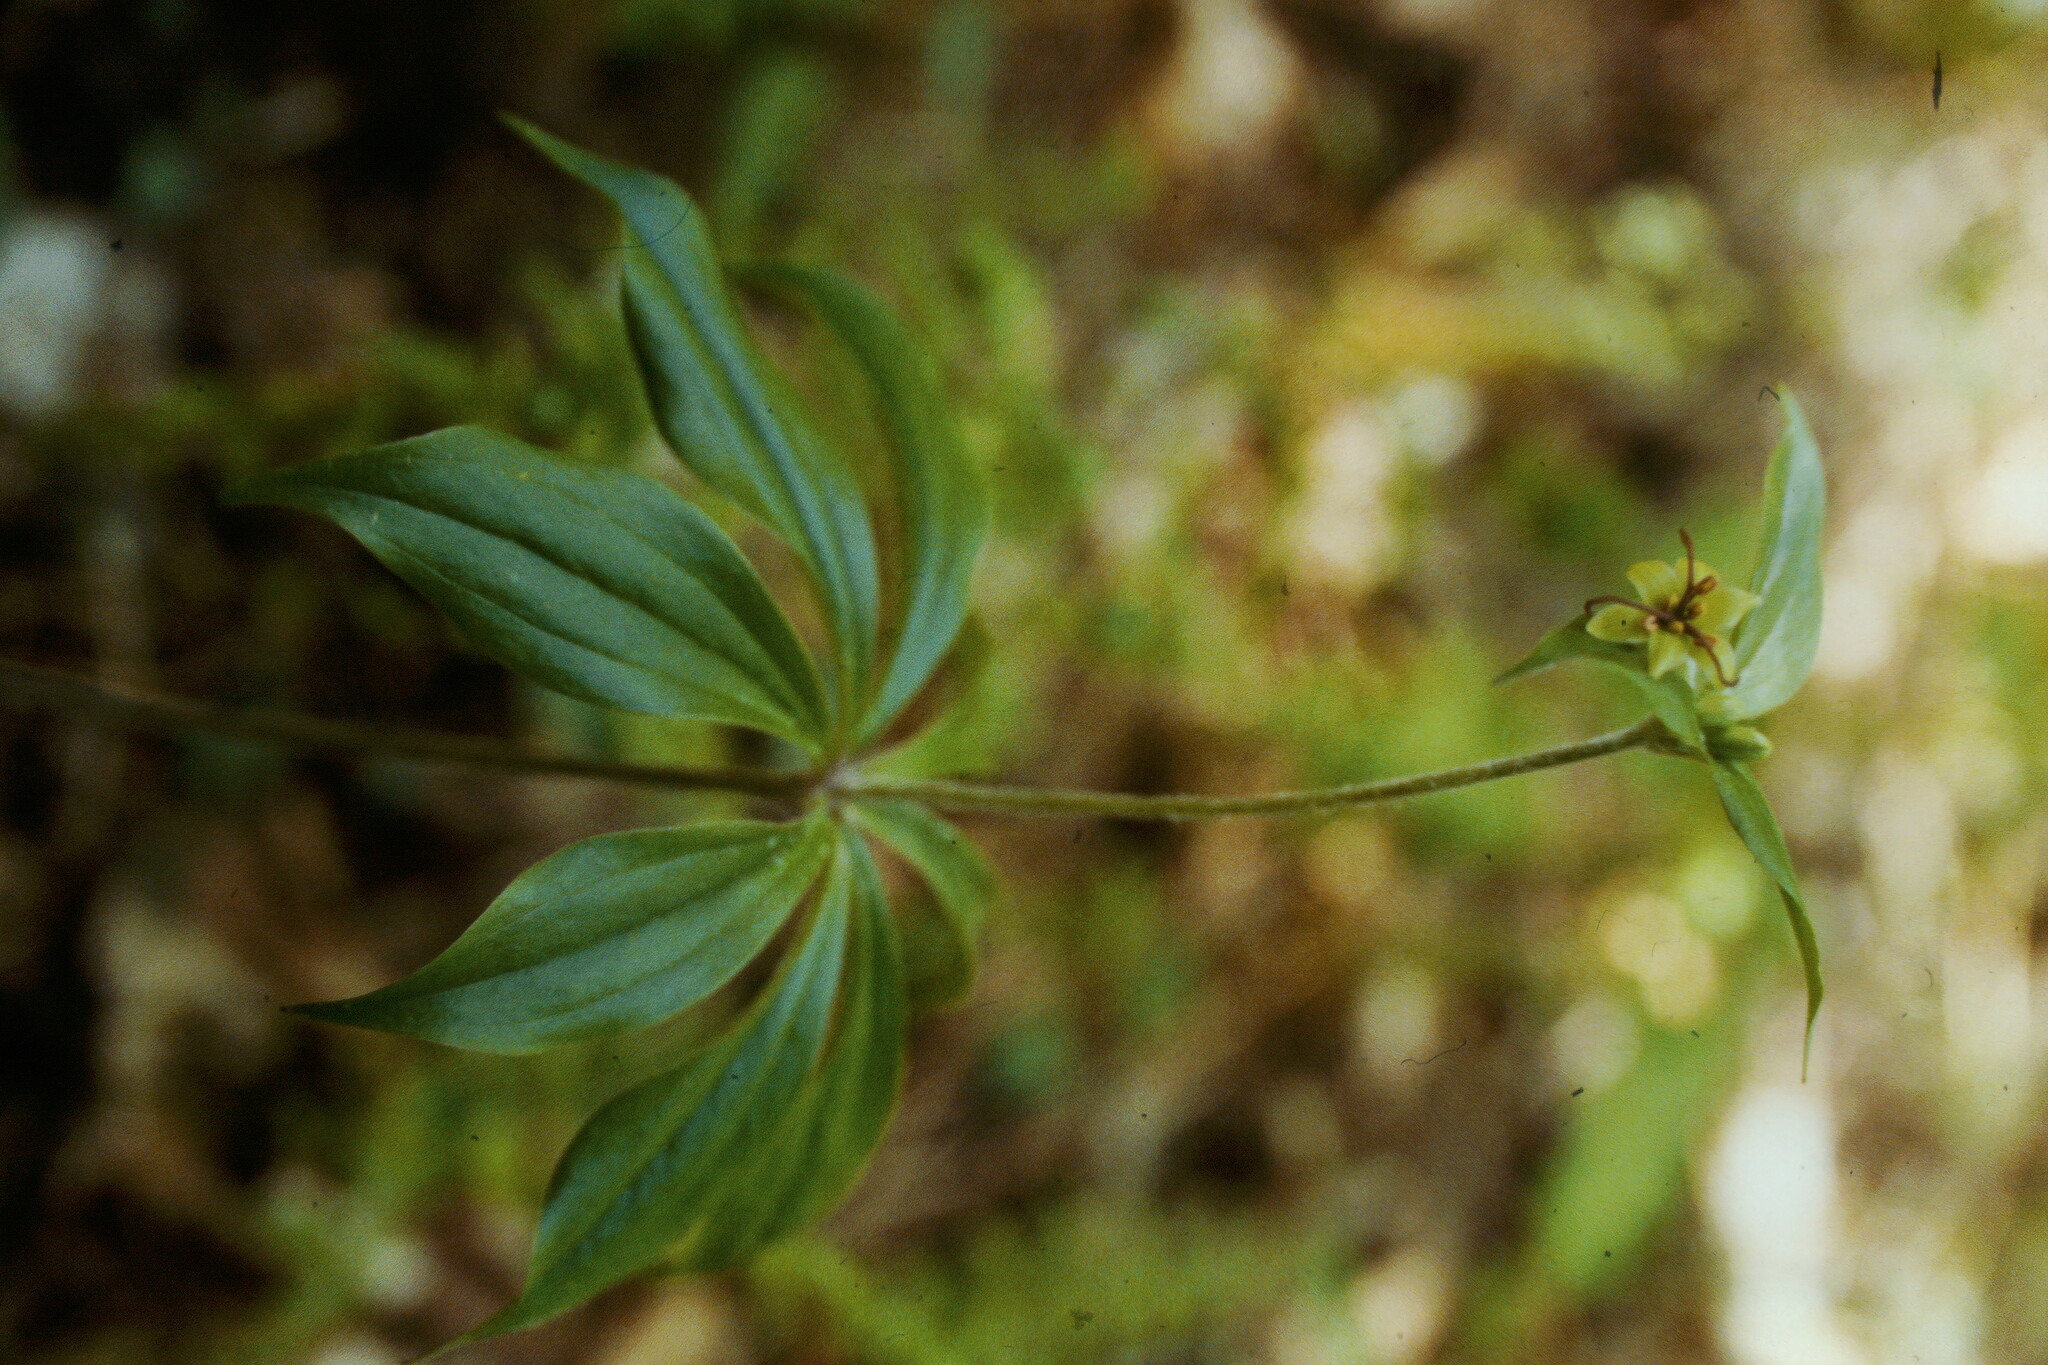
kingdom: Plantae
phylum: Tracheophyta
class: Liliopsida
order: Liliales
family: Liliaceae
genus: Medeola
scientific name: Medeola virginiana
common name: Indian cucumber-root
